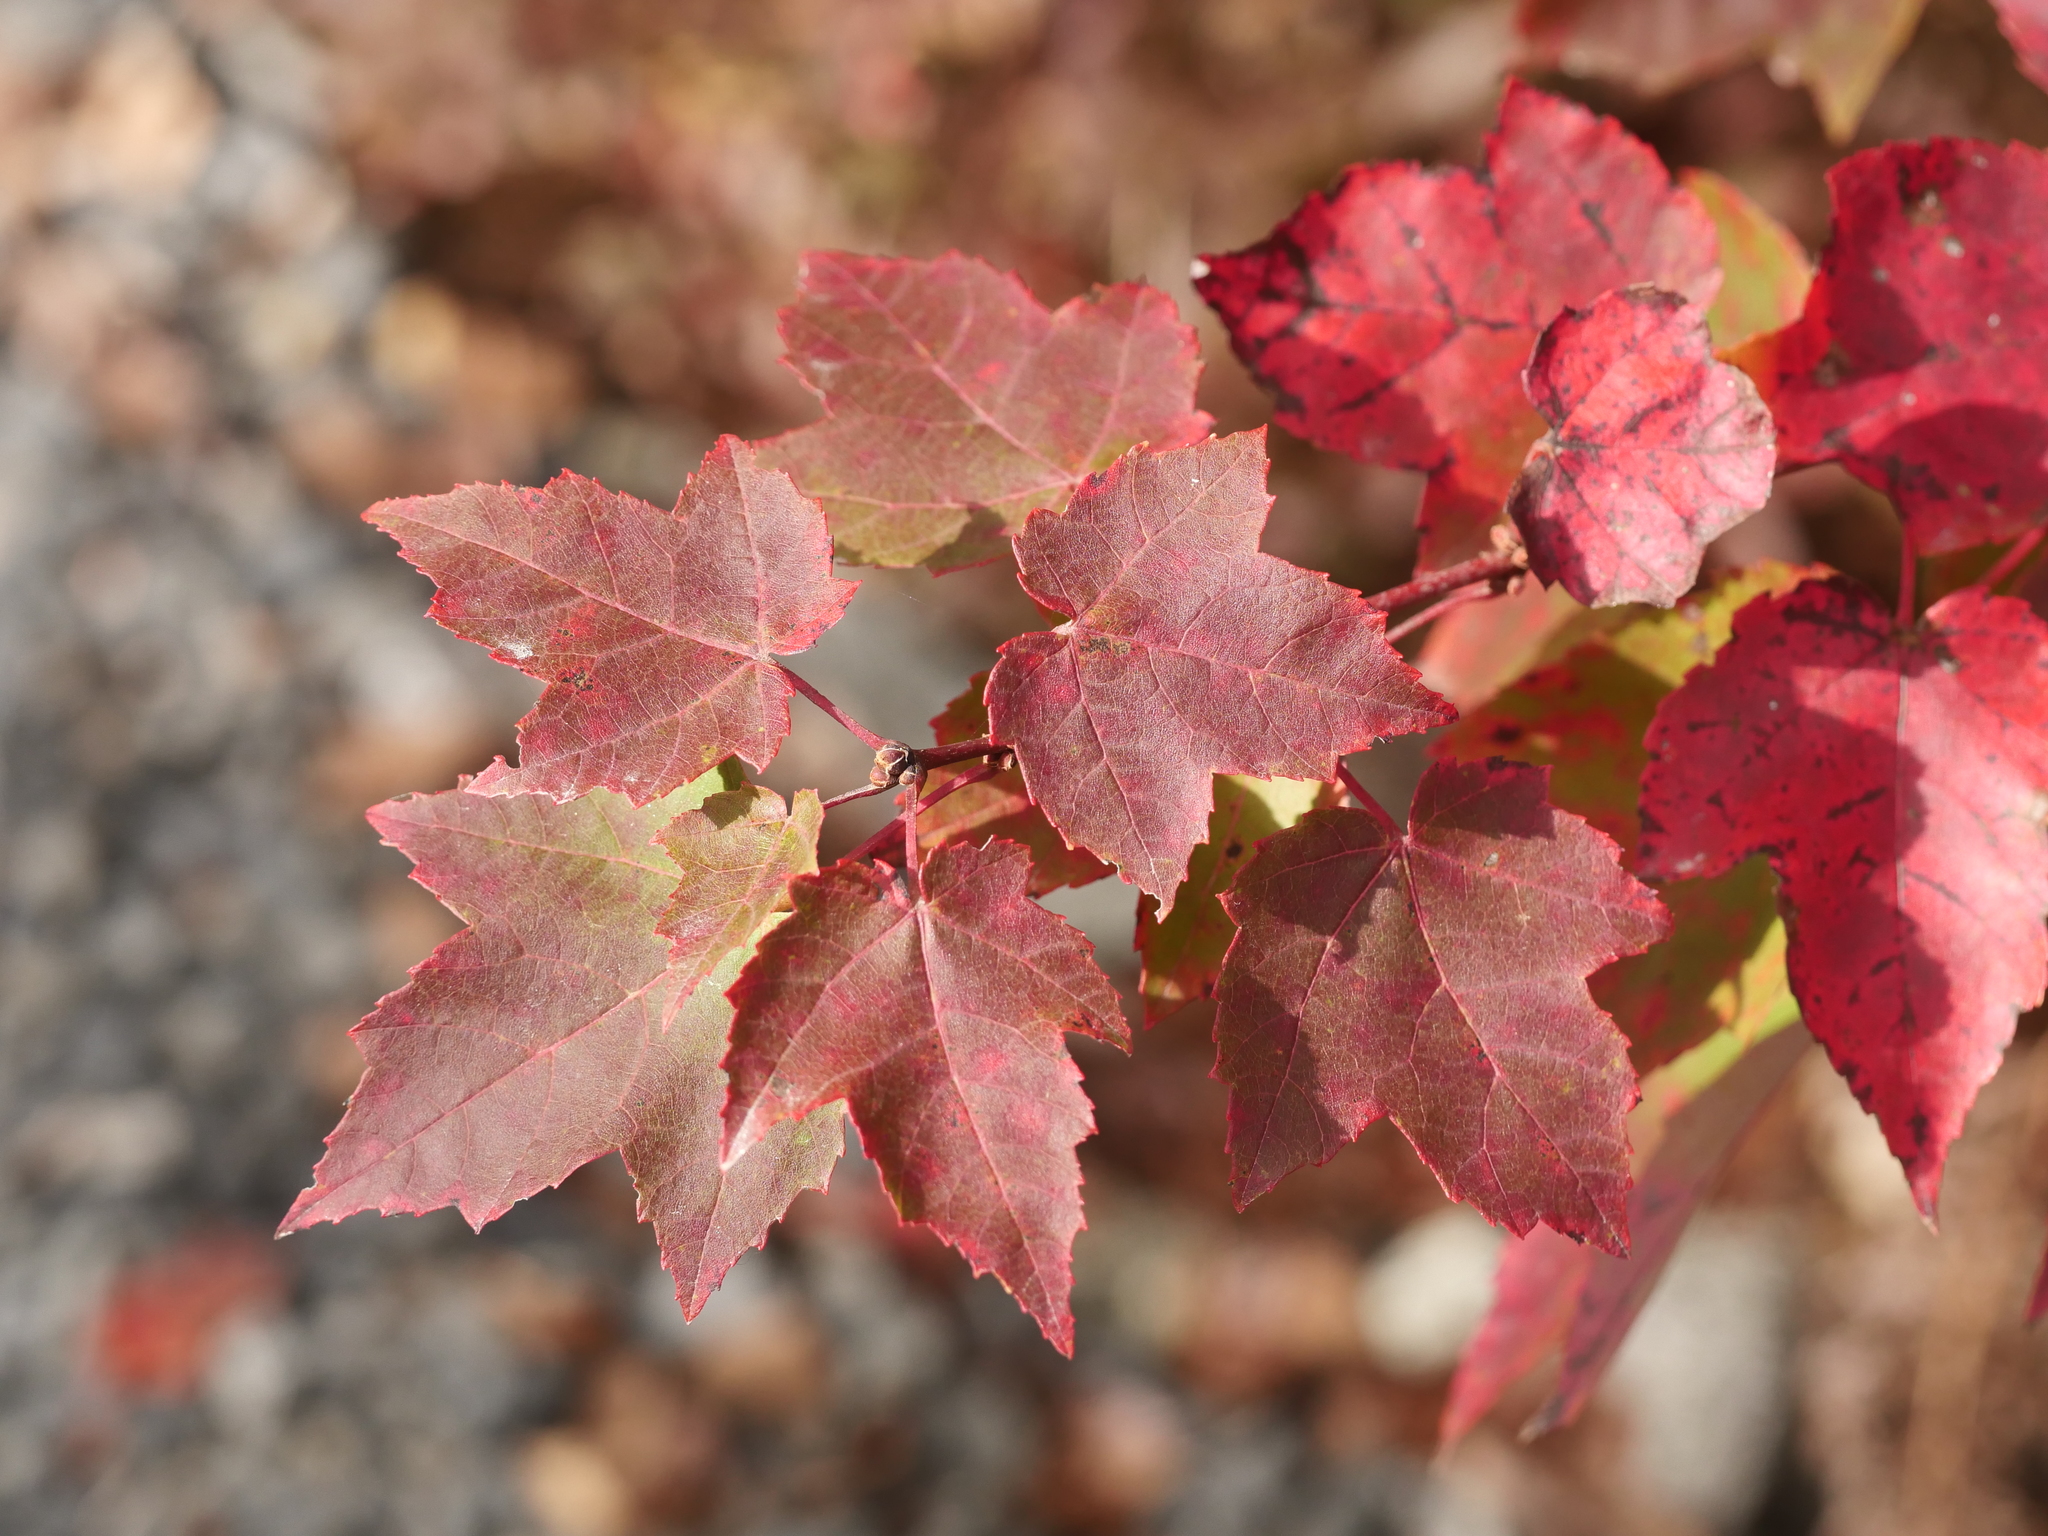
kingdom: Plantae
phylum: Tracheophyta
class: Magnoliopsida
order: Sapindales
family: Sapindaceae
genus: Acer
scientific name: Acer rubrum
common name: Red maple
